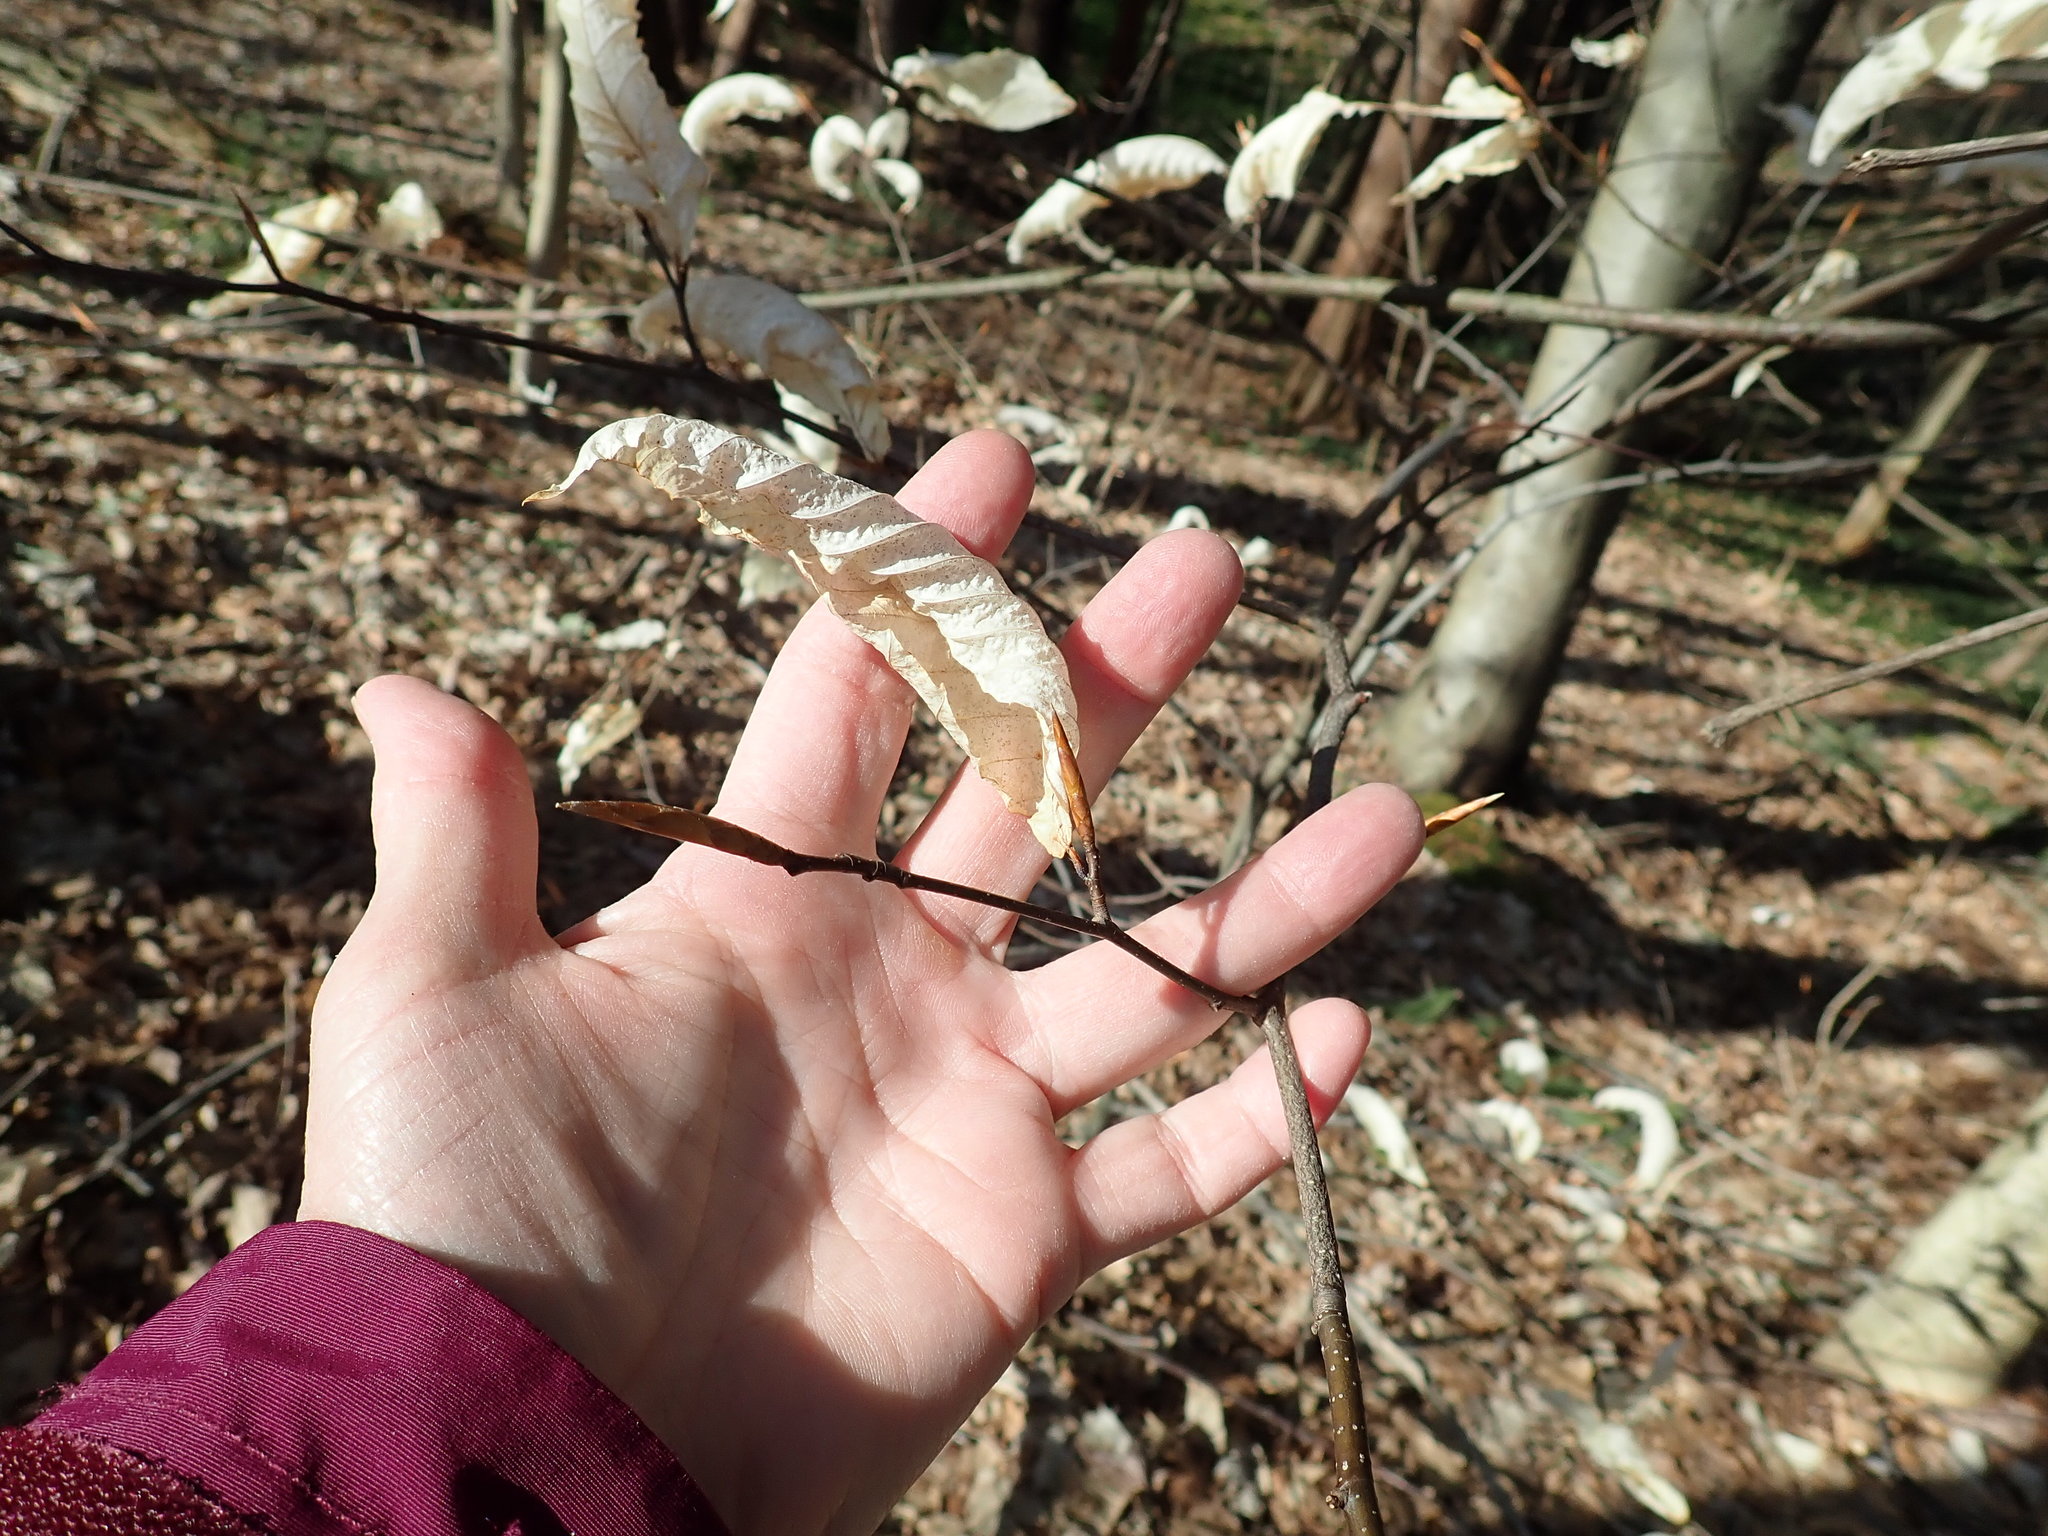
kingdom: Plantae
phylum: Tracheophyta
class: Magnoliopsida
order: Fagales
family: Fagaceae
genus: Fagus
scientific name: Fagus grandifolia
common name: American beech
